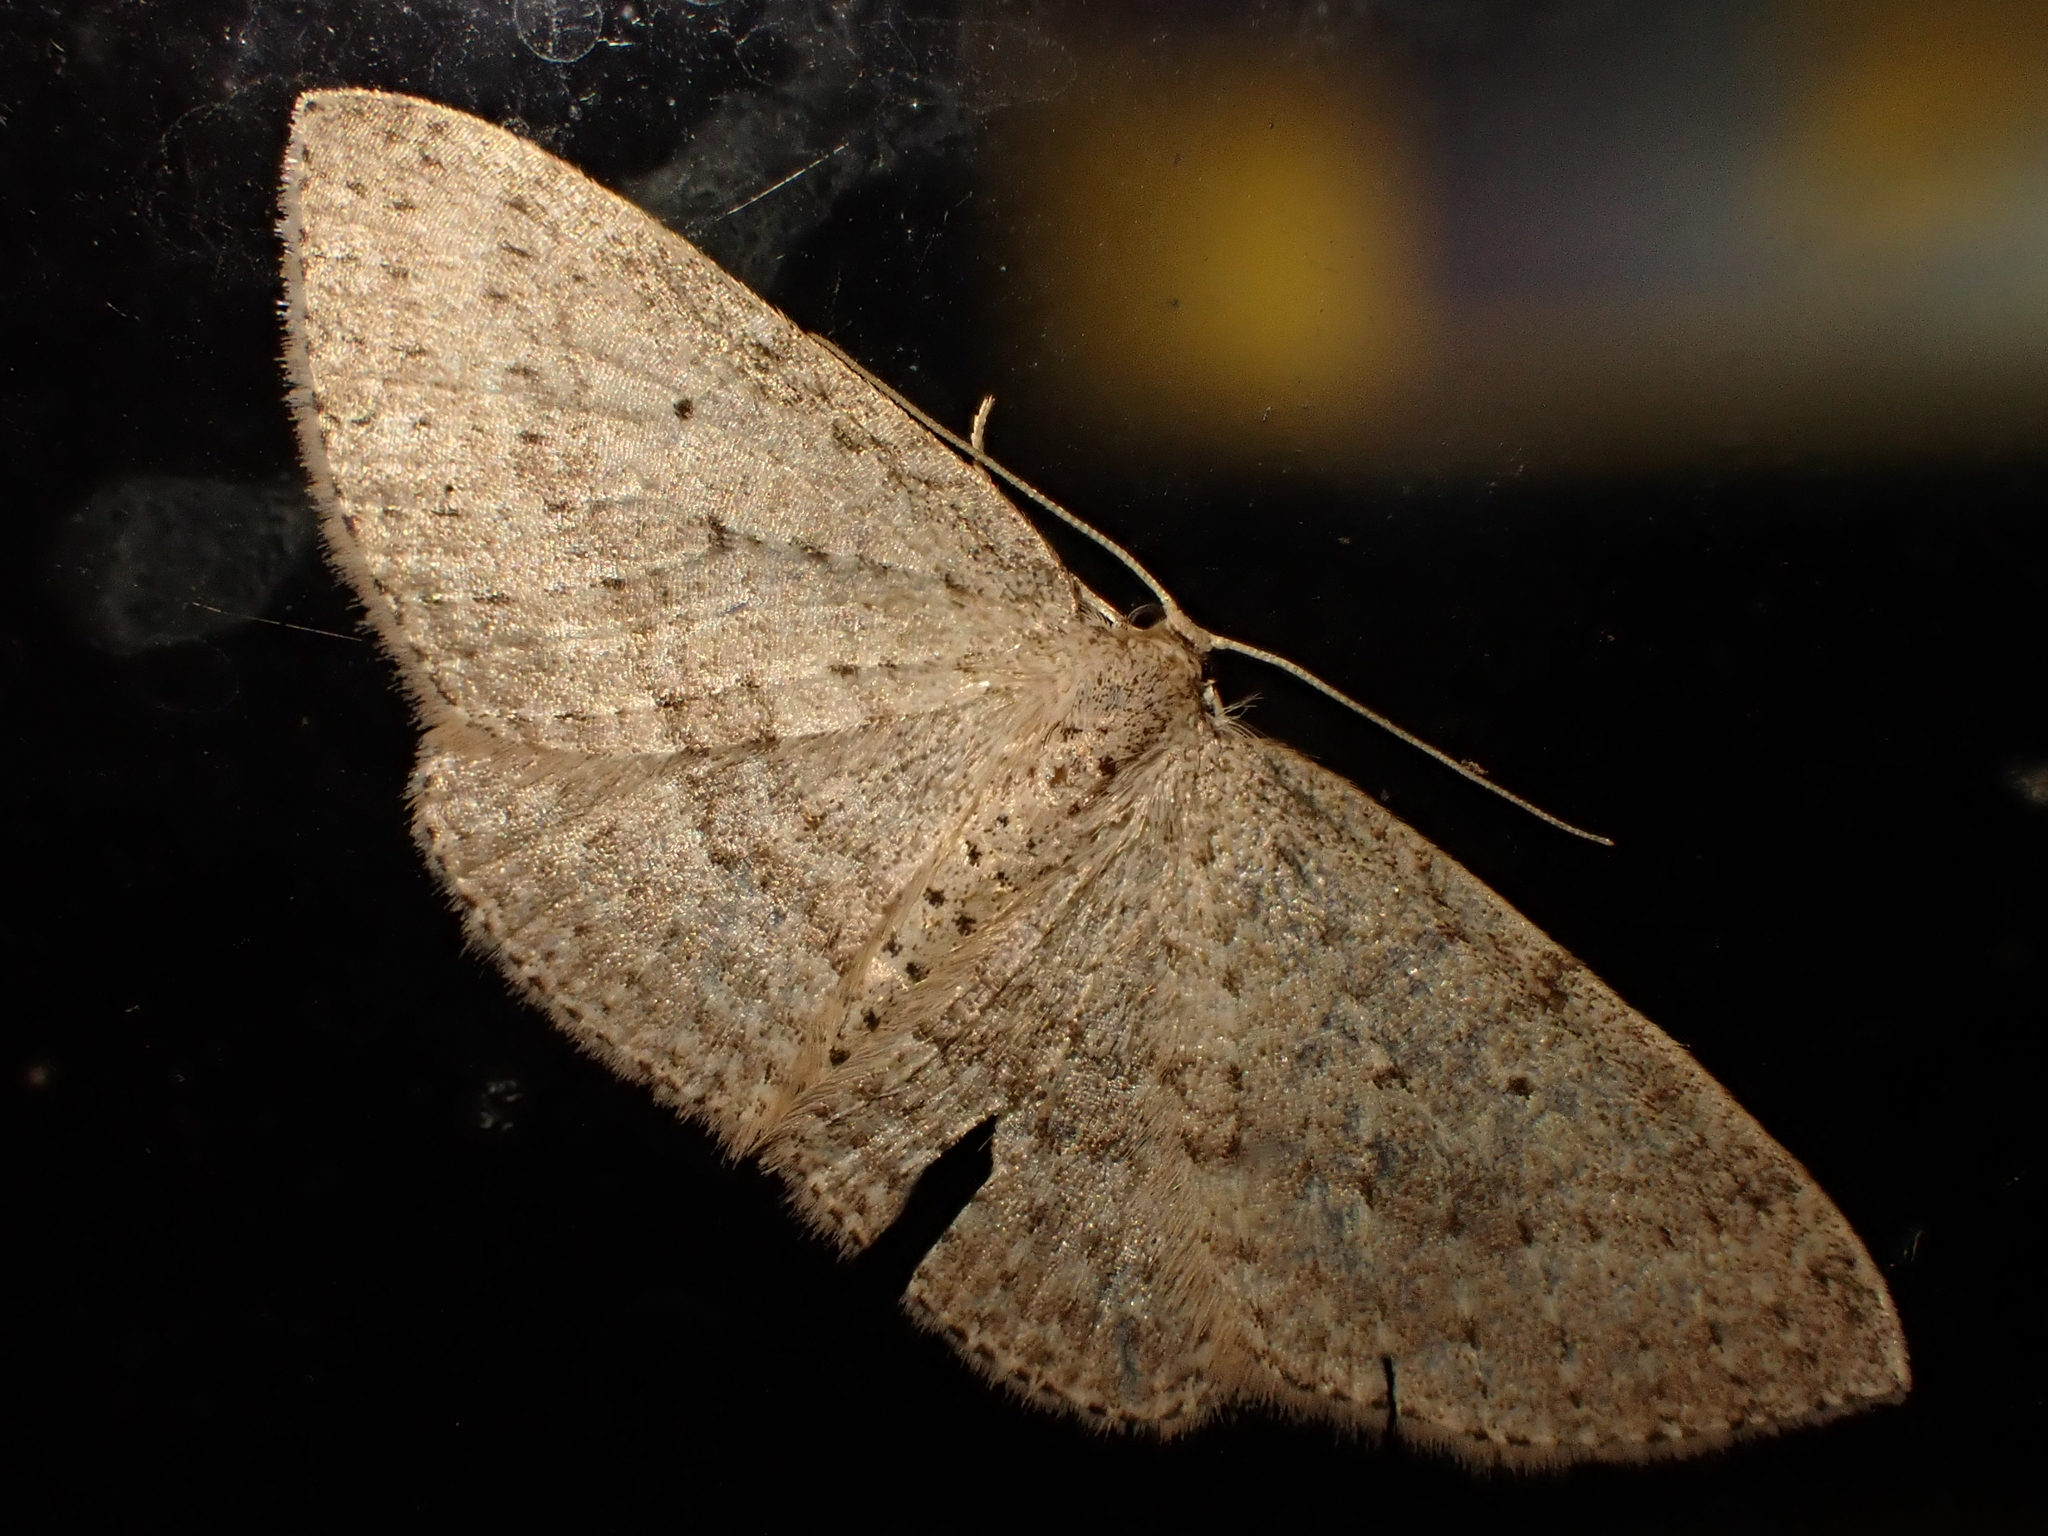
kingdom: Animalia
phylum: Arthropoda
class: Insecta
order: Lepidoptera
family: Geometridae
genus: Poecilasthena
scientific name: Poecilasthena schistaria
